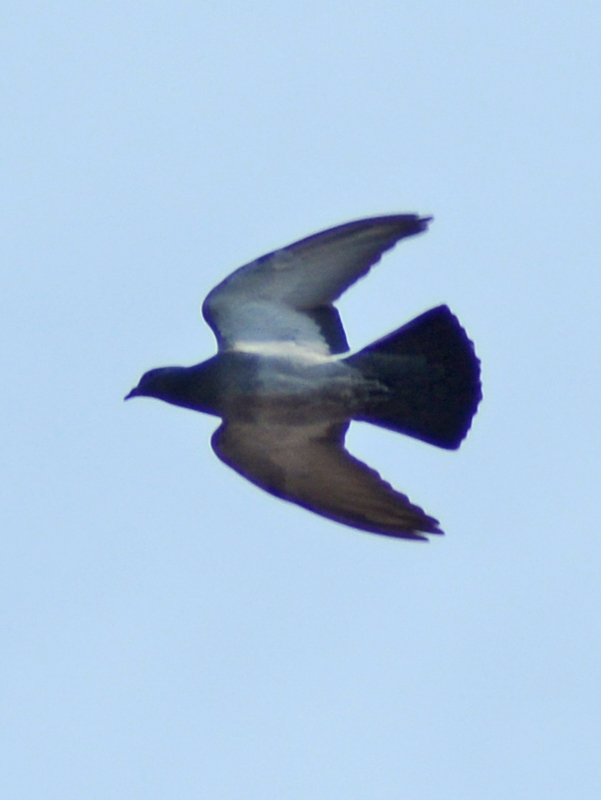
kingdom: Animalia
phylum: Chordata
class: Aves
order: Columbiformes
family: Columbidae
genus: Columba
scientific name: Columba livia
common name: Rock pigeon
